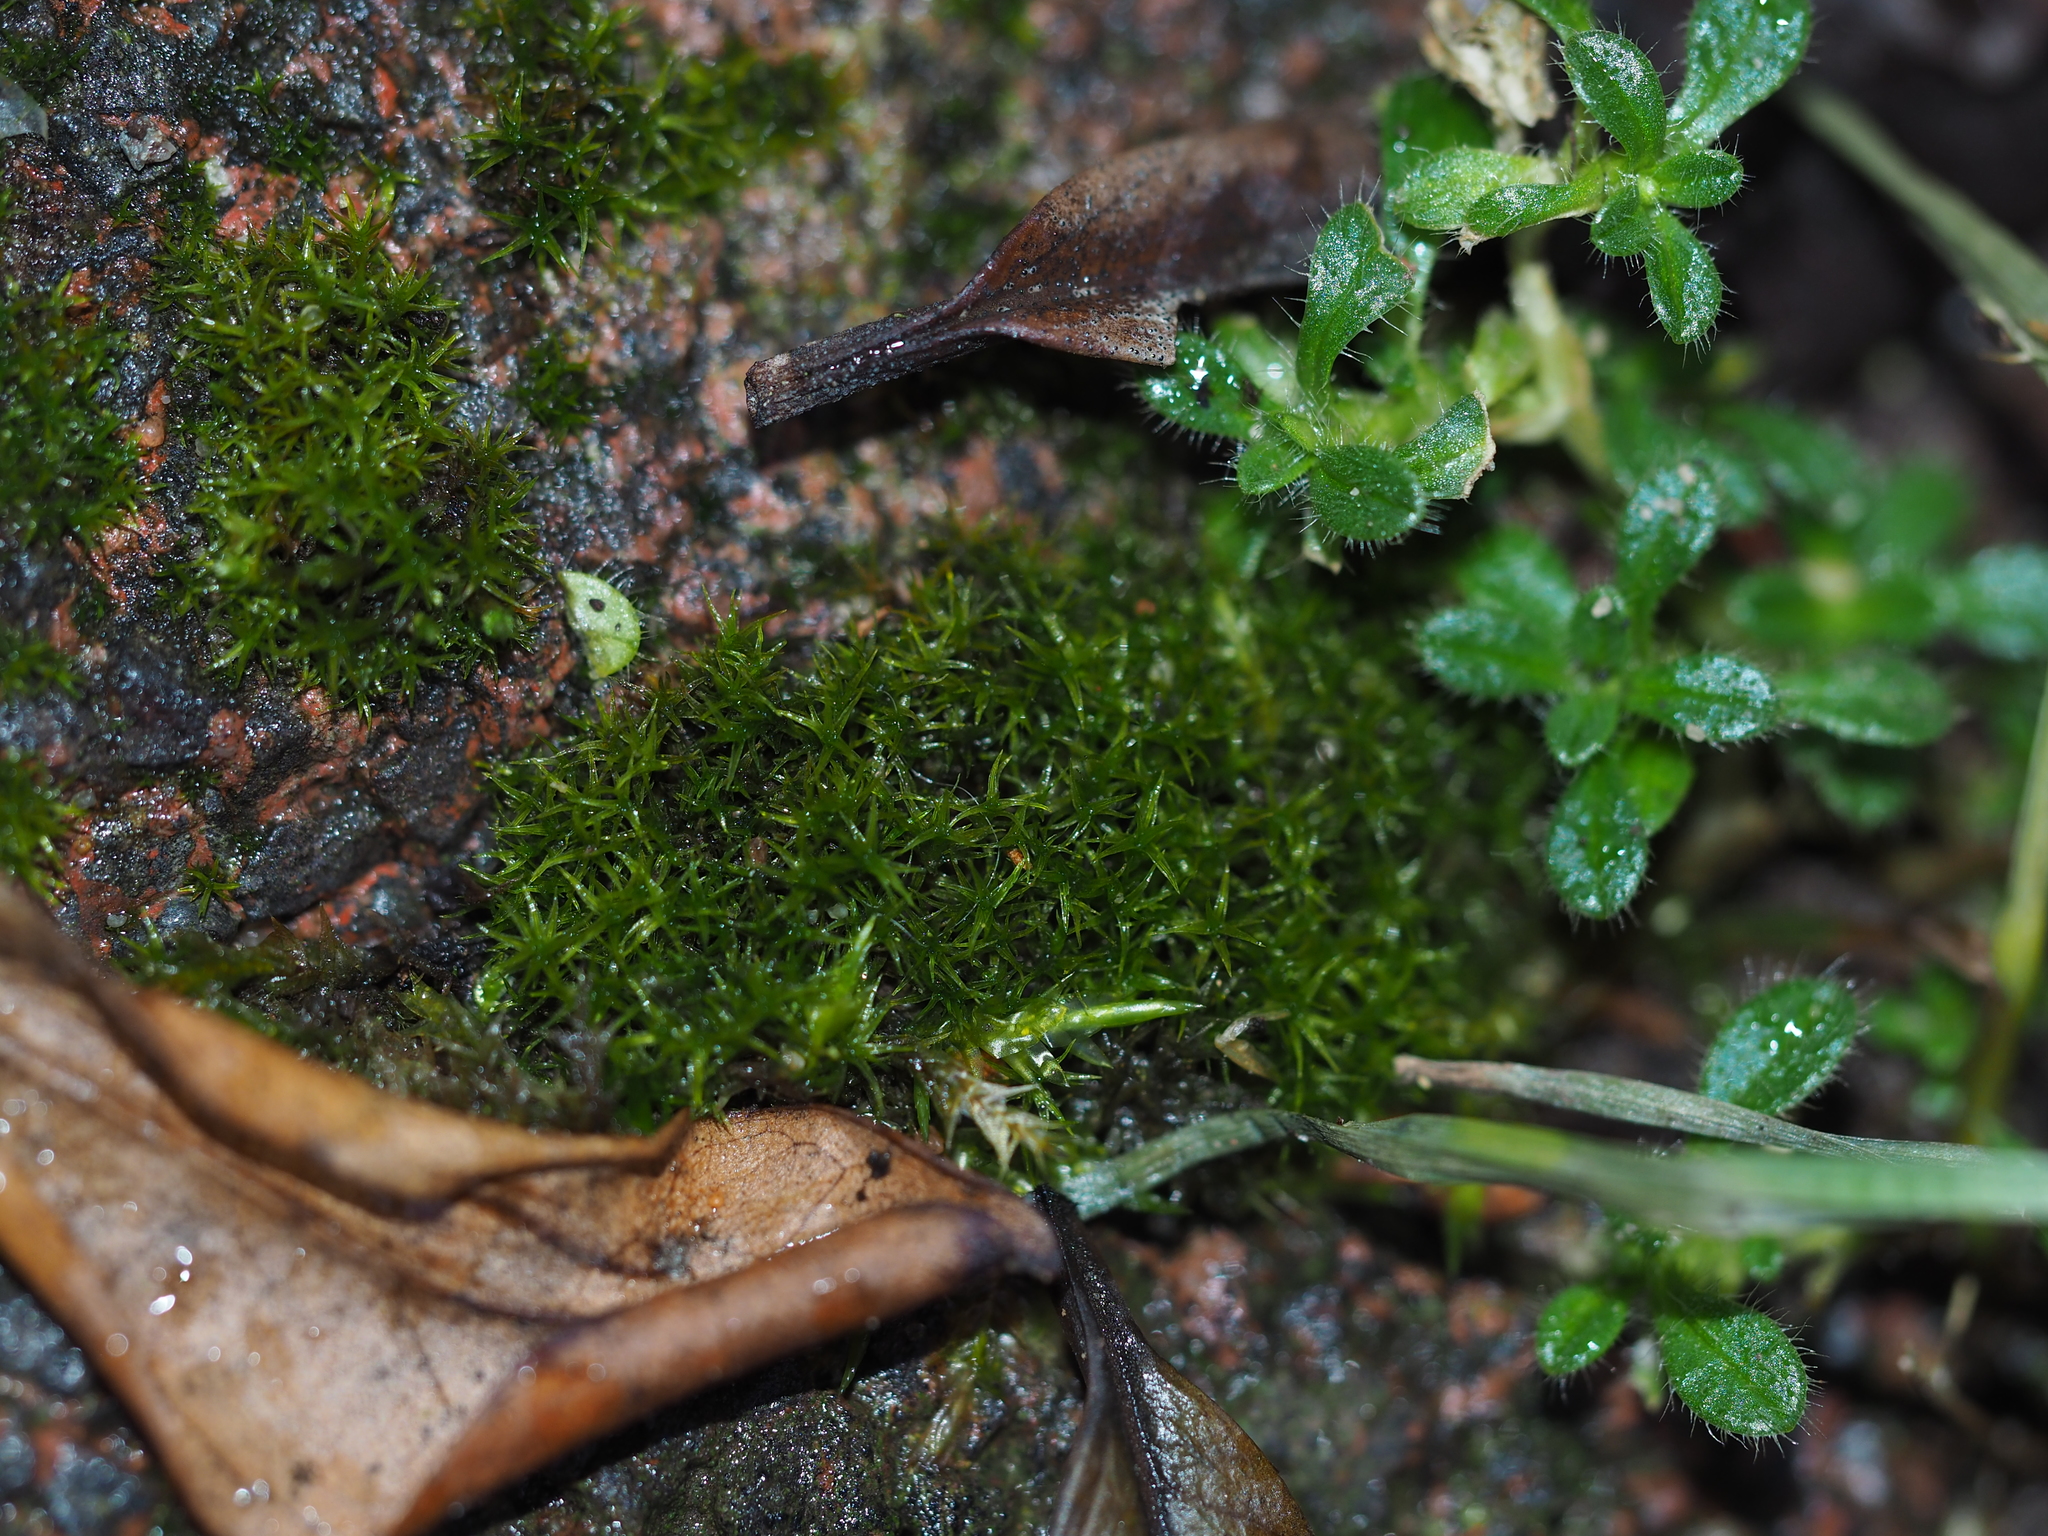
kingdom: Plantae
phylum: Bryophyta
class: Bryopsida
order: Pottiales
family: Pottiaceae
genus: Didymodon
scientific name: Didymodon rigidulus
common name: Rigid beard-moss
